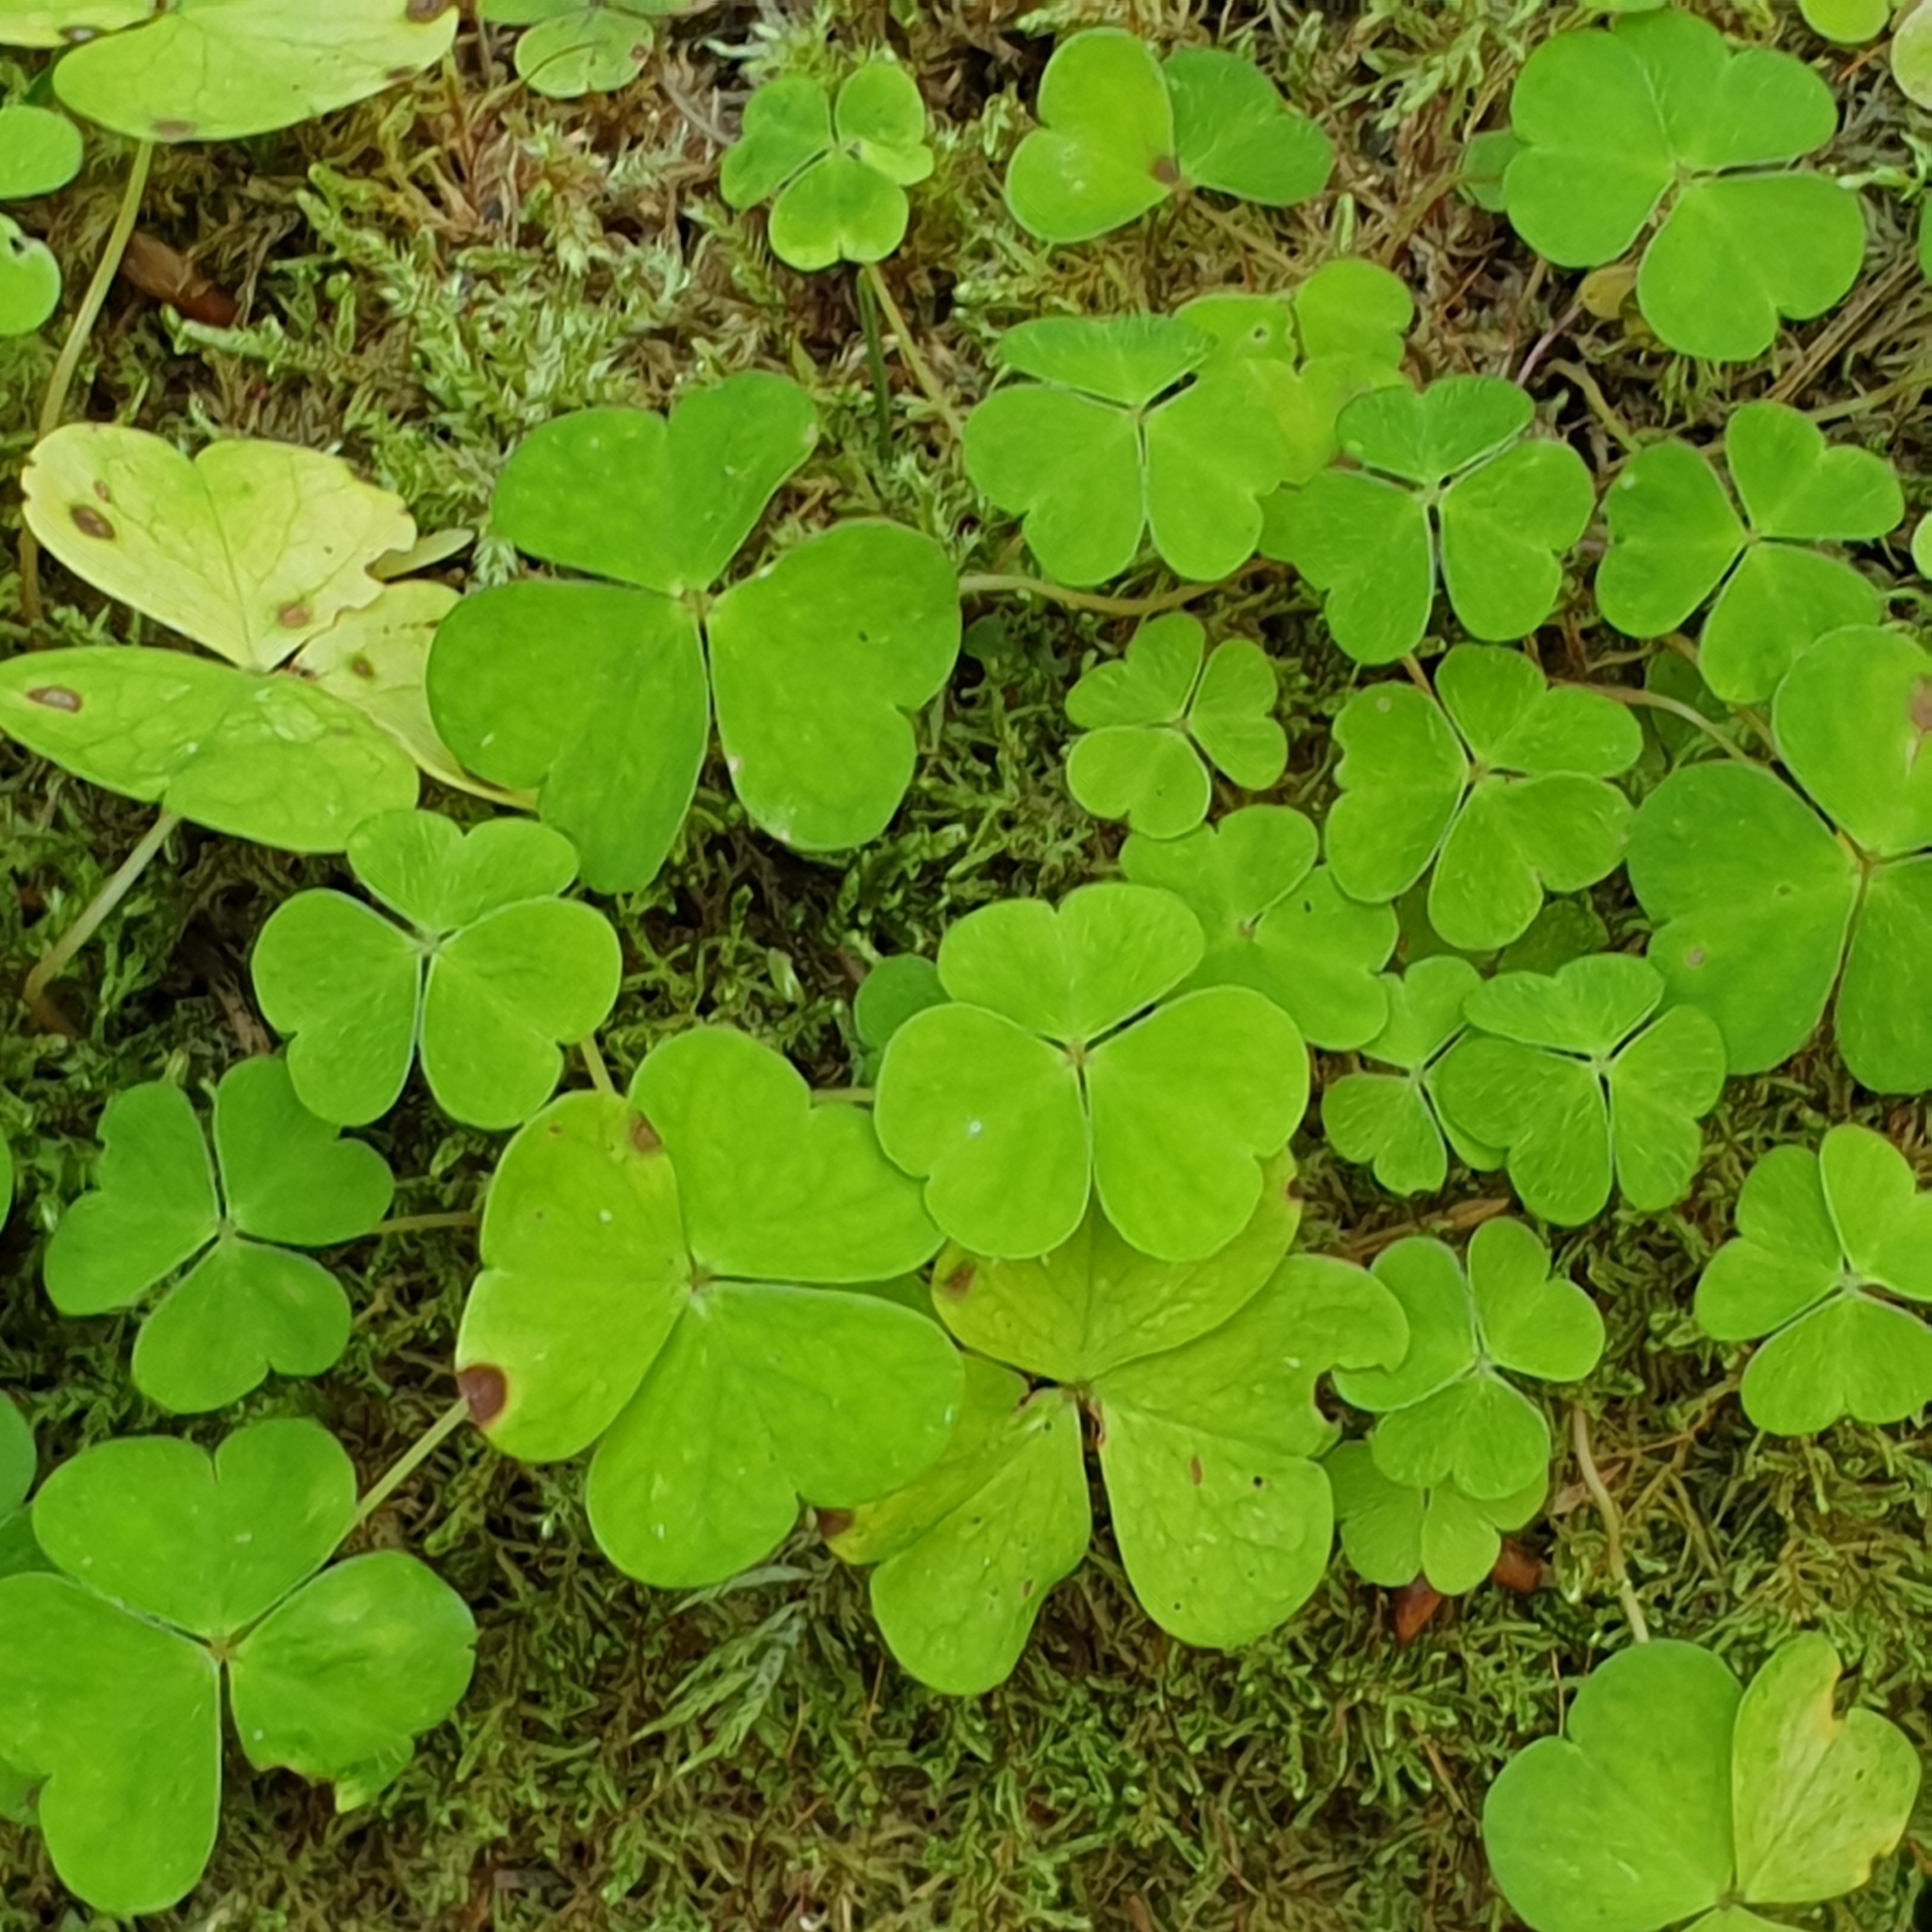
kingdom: Plantae
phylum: Tracheophyta
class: Magnoliopsida
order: Oxalidales
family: Oxalidaceae
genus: Oxalis
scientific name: Oxalis acetosella
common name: Wood-sorrel
